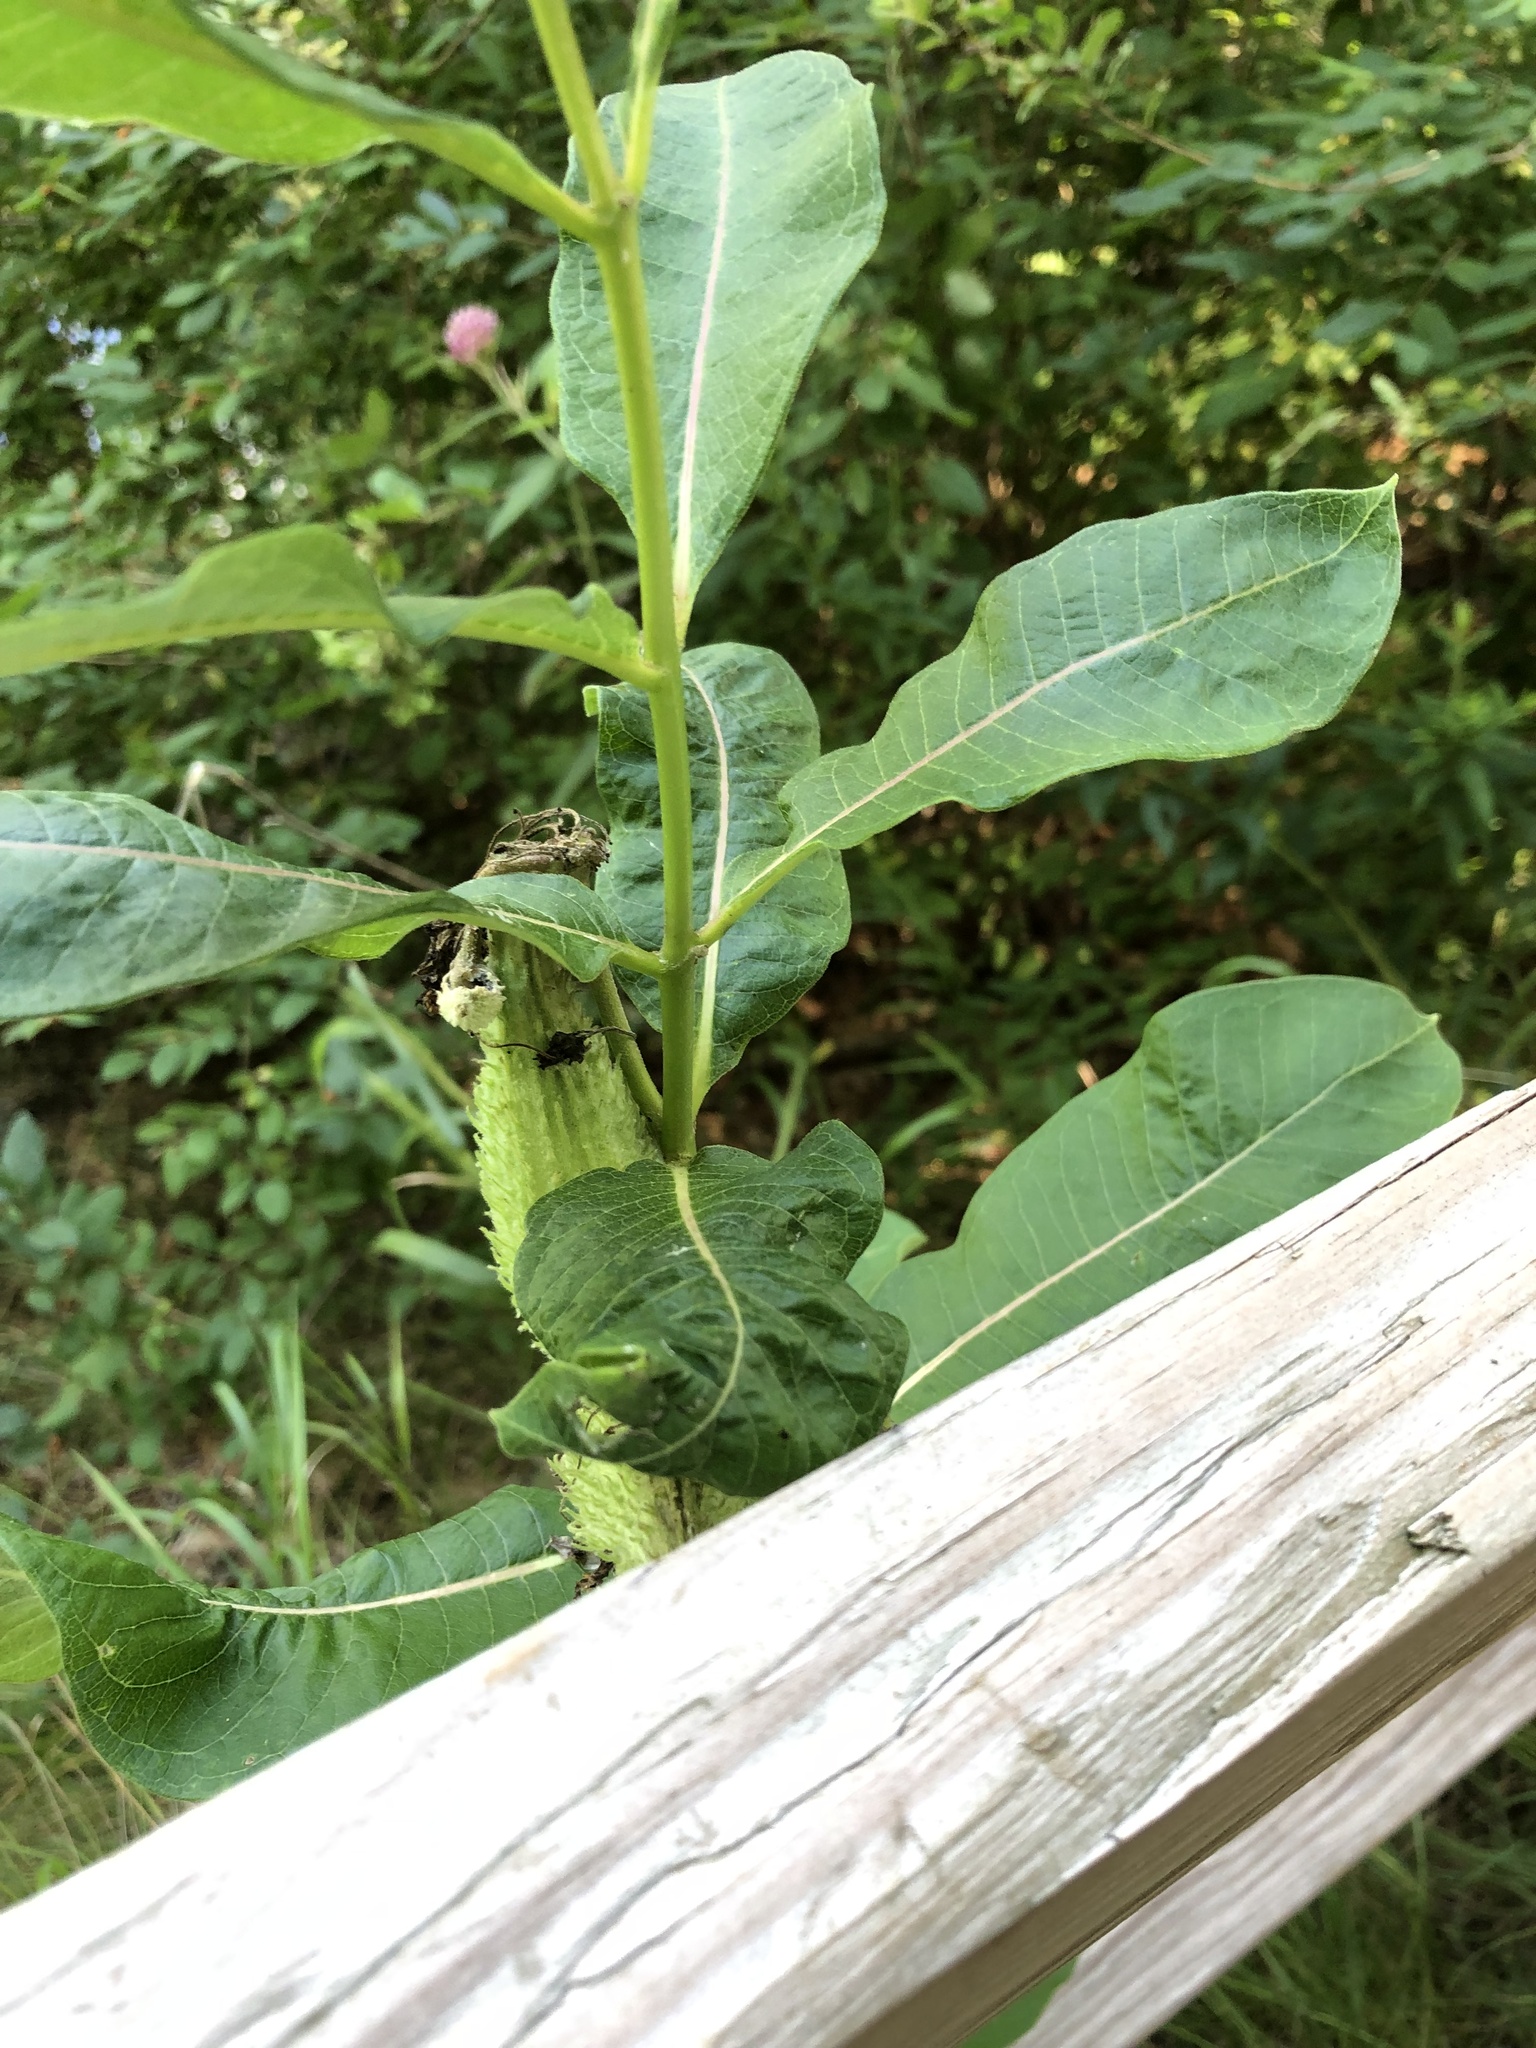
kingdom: Plantae
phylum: Tracheophyta
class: Magnoliopsida
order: Gentianales
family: Apocynaceae
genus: Asclepias
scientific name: Asclepias syriaca
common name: Common milkweed
